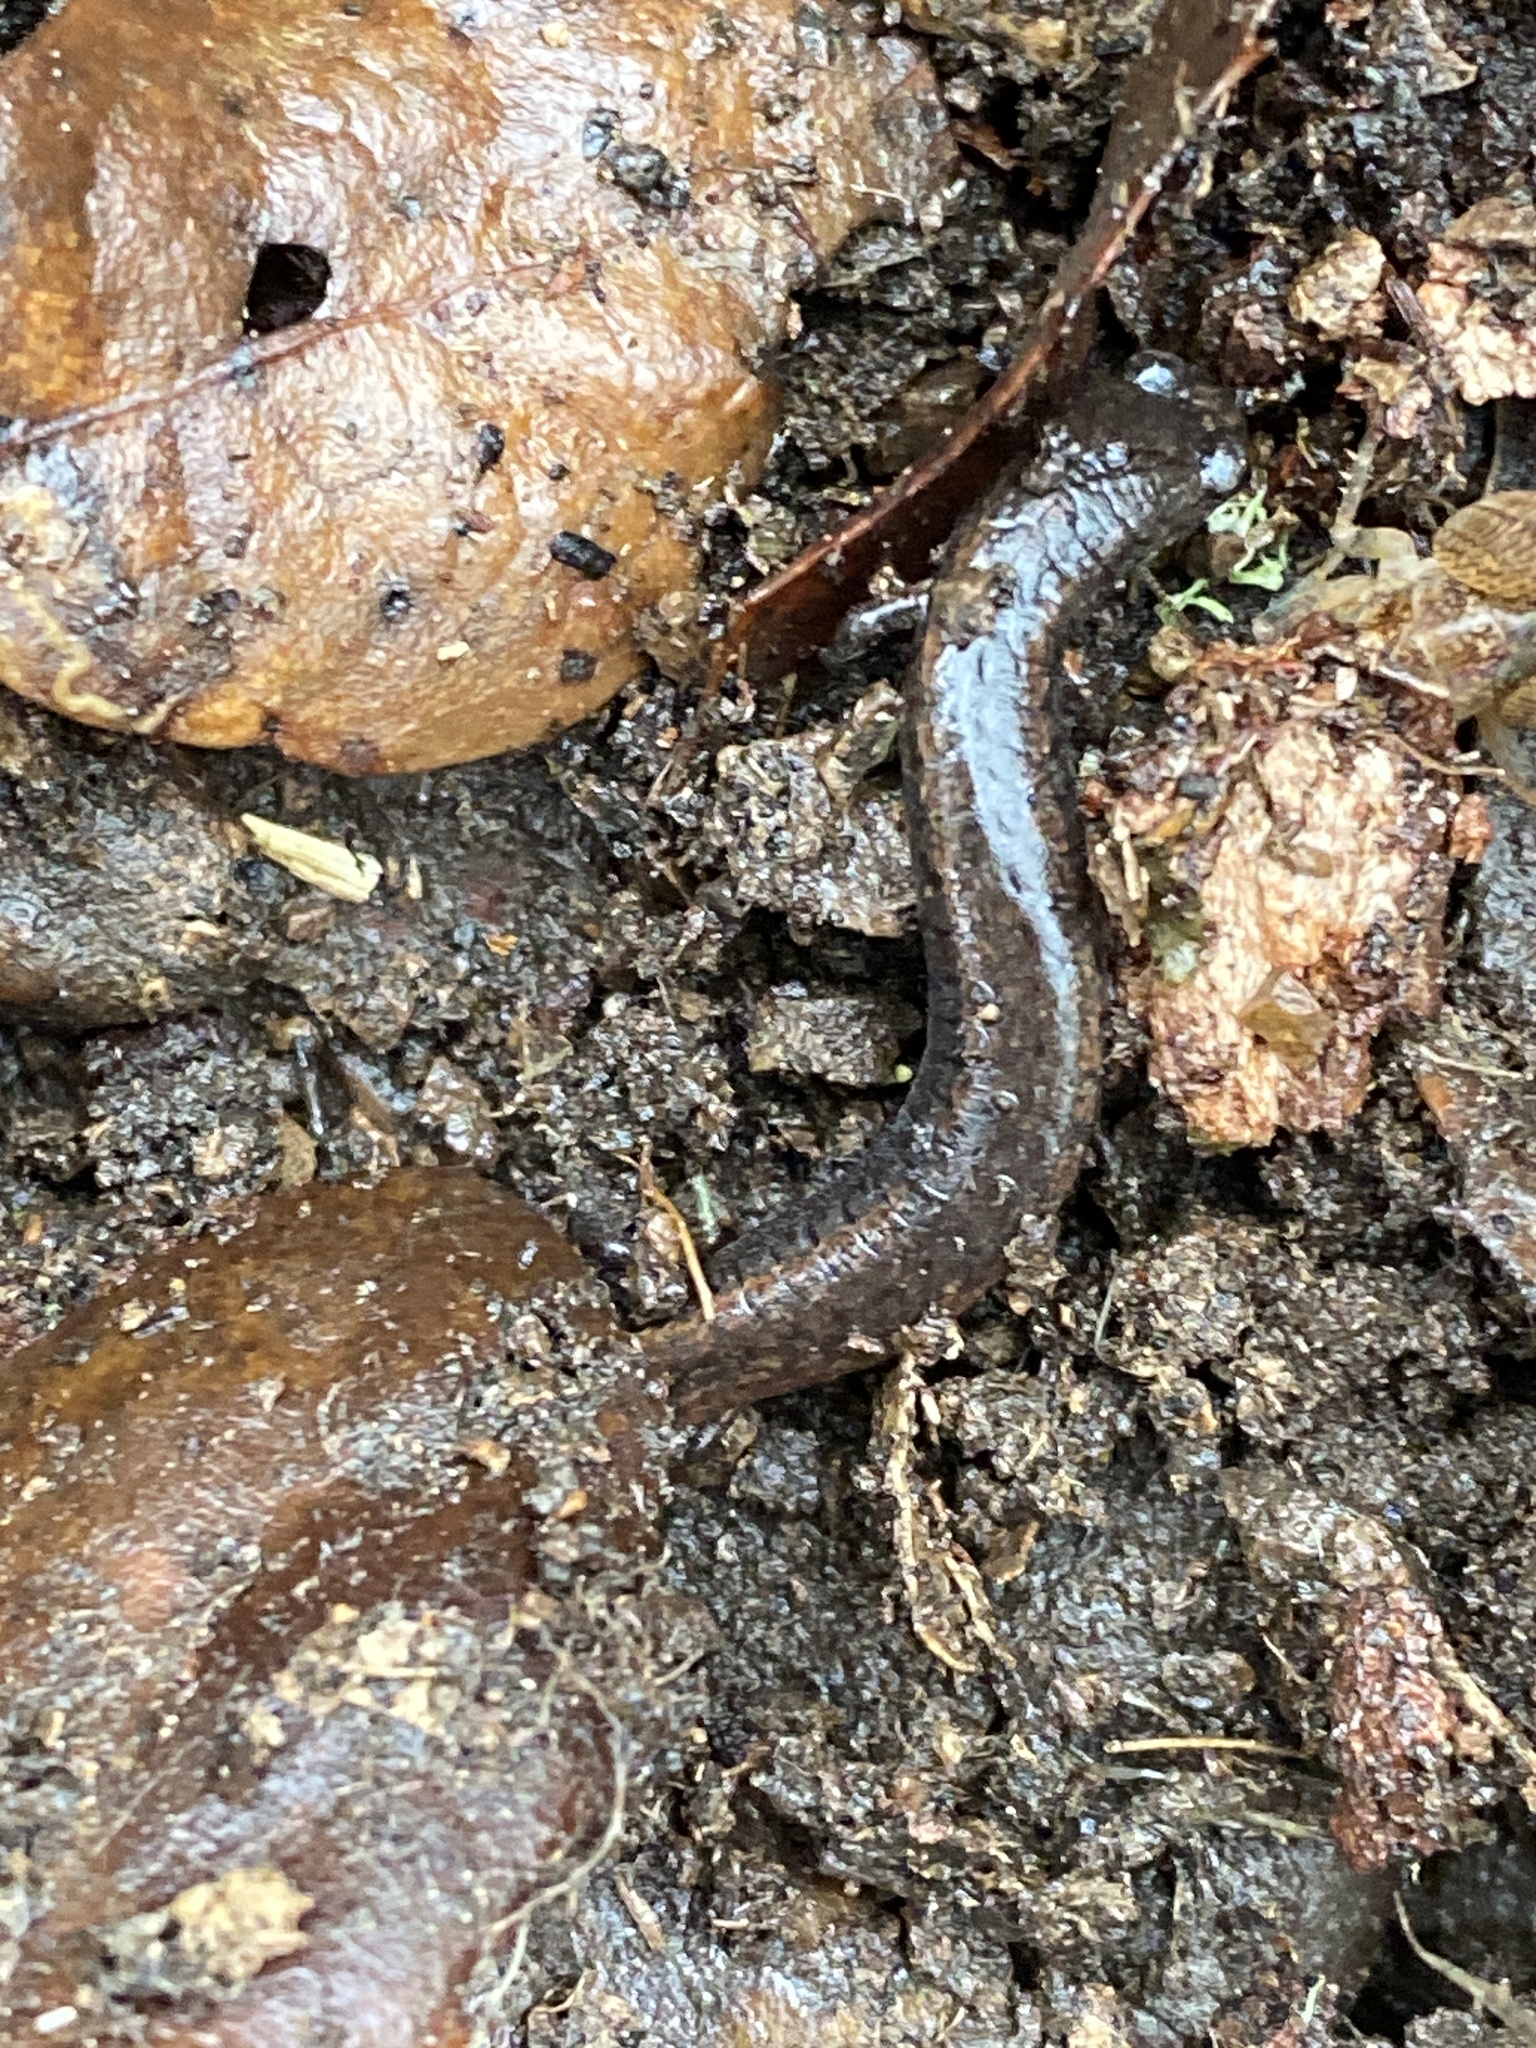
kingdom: Animalia
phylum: Chordata
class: Amphibia
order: Caudata
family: Plethodontidae
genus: Batrachoseps
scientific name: Batrachoseps attenuatus
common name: California slender salamander
